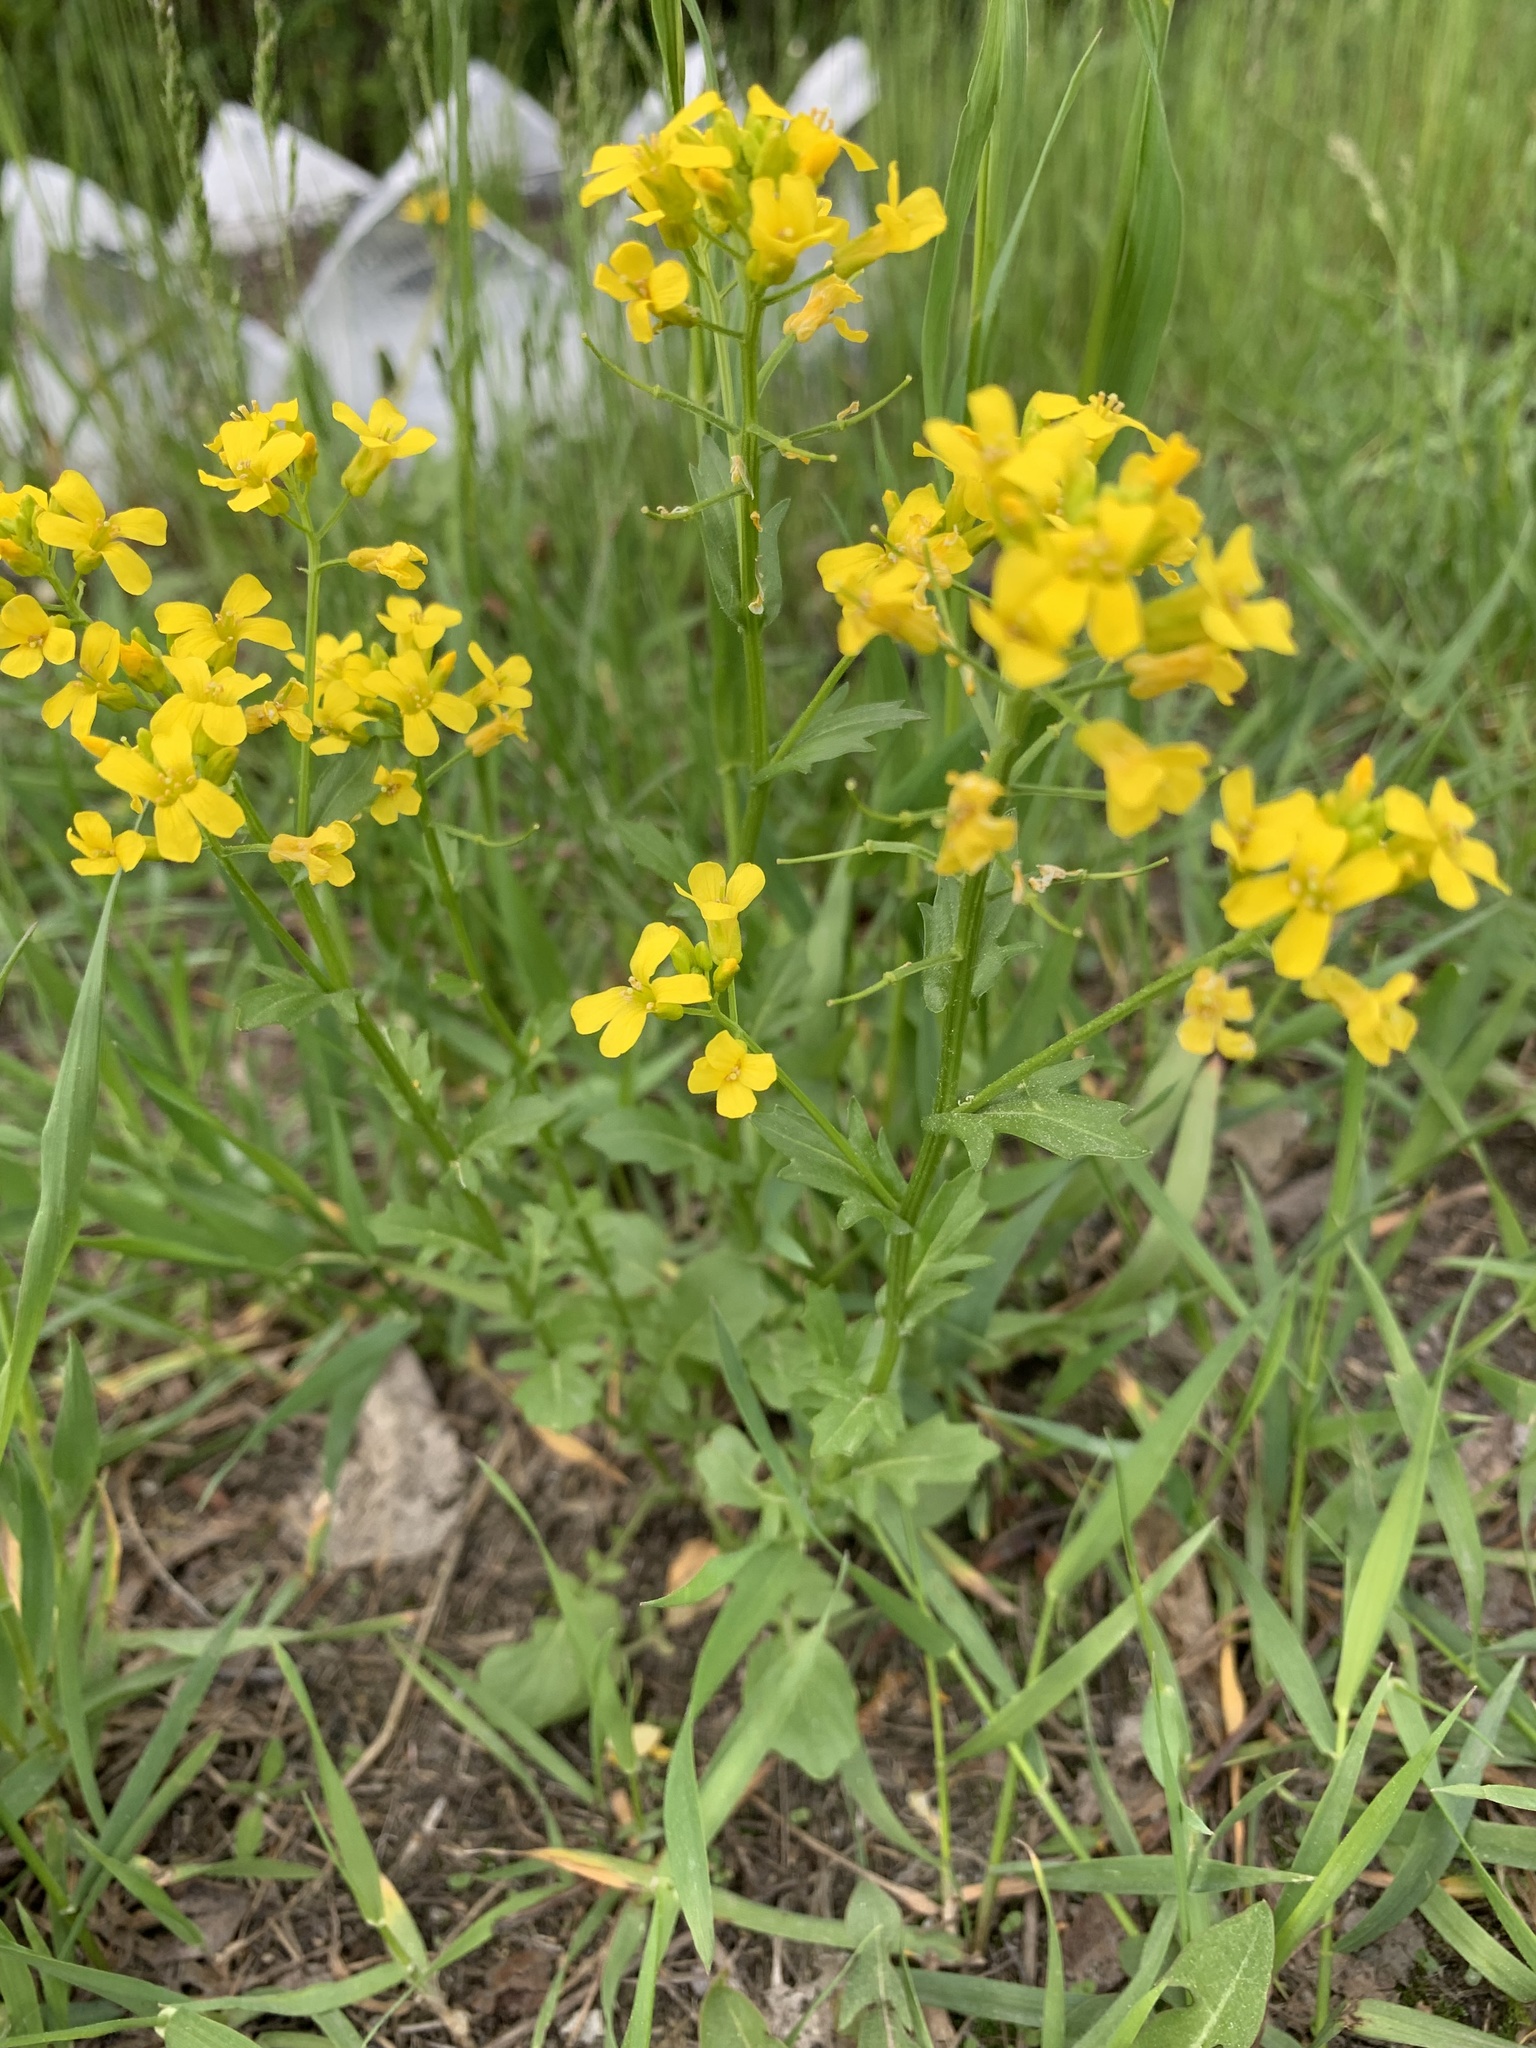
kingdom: Plantae
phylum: Tracheophyta
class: Magnoliopsida
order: Brassicales
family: Brassicaceae
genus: Barbarea
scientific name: Barbarea vulgaris
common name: Cressy-greens
